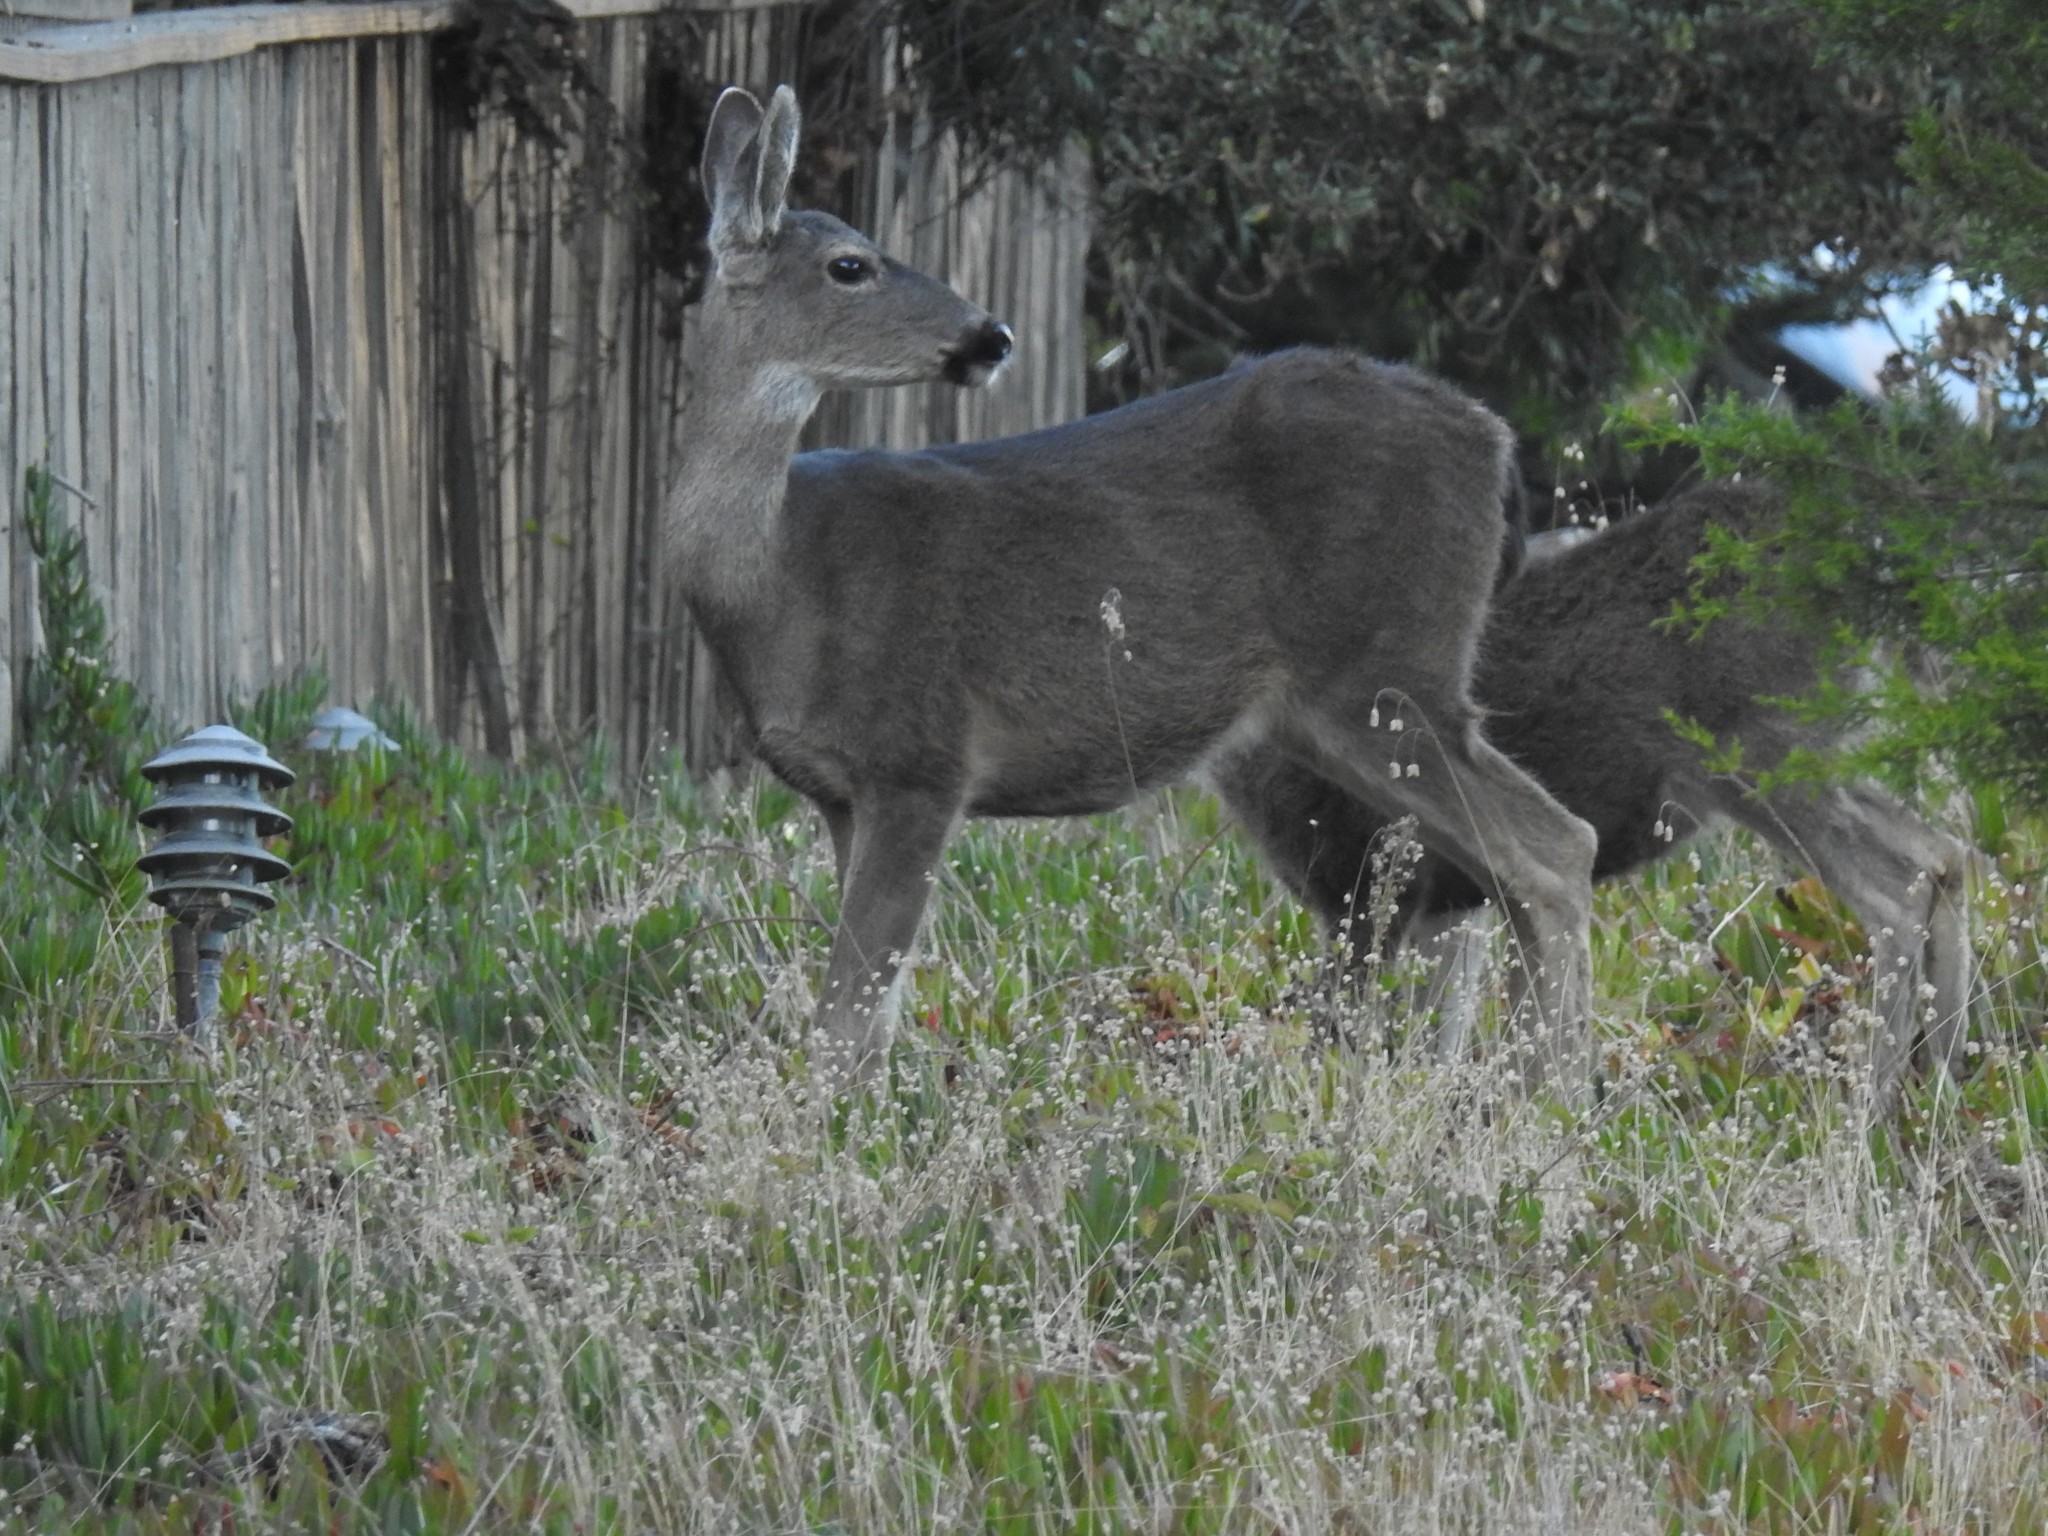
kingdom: Animalia
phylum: Chordata
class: Mammalia
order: Artiodactyla
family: Cervidae
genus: Odocoileus
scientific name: Odocoileus hemionus
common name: Mule deer
